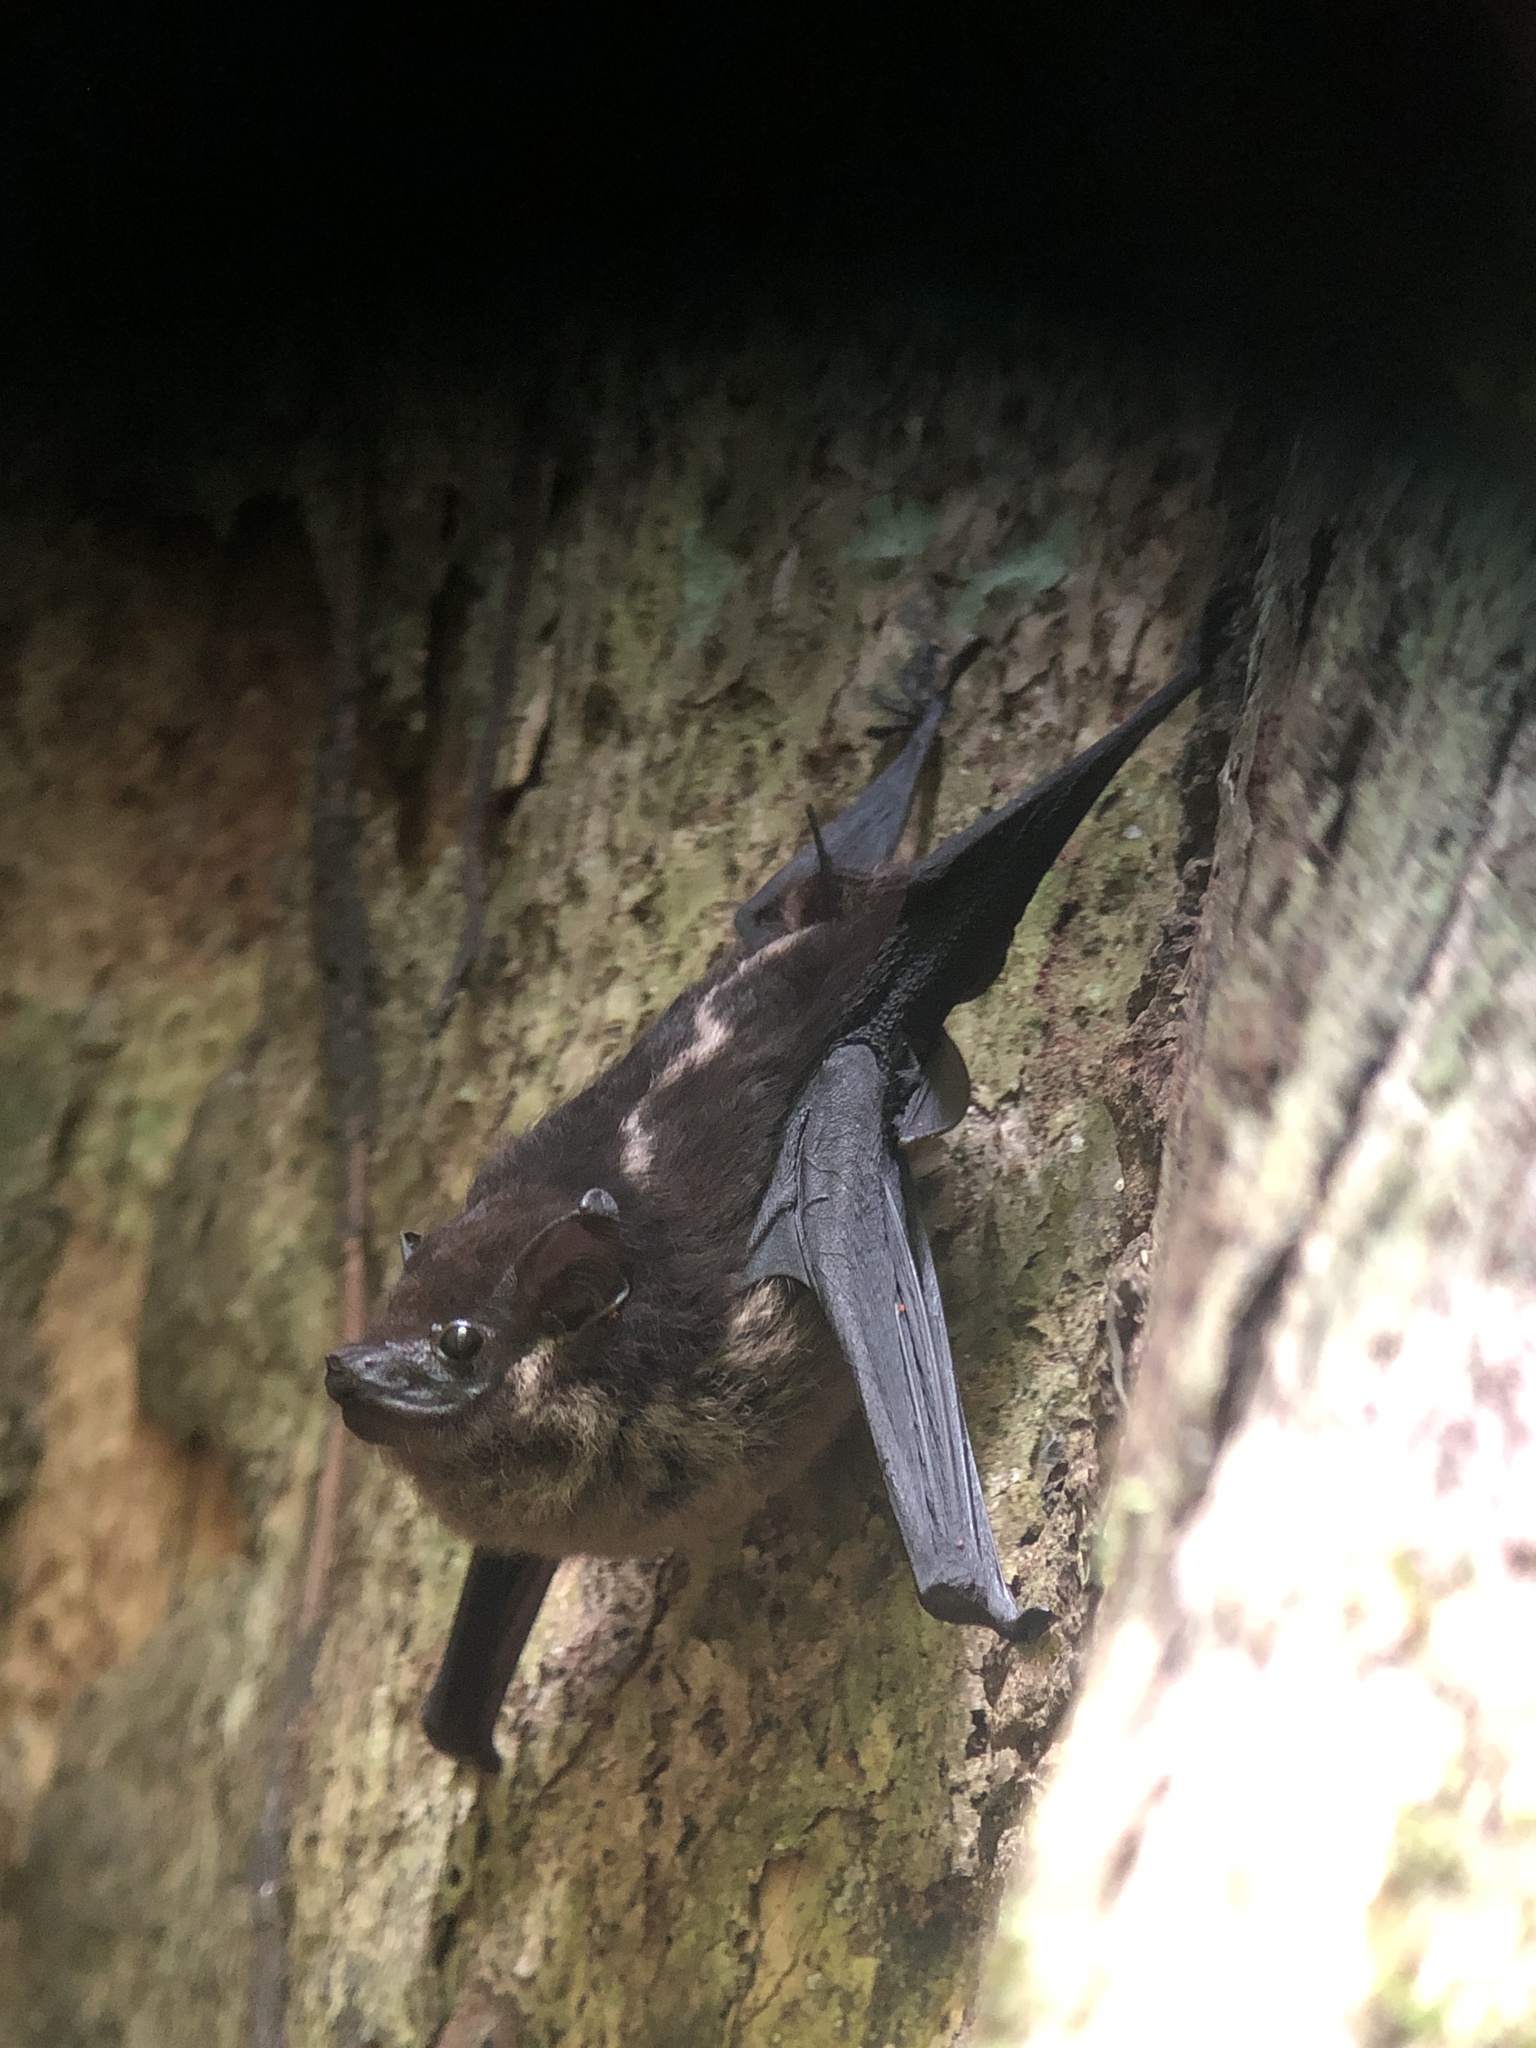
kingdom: Animalia
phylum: Chordata
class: Mammalia
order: Chiroptera
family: Emballonuridae
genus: Saccopteryx
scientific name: Saccopteryx bilineata
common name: Greater sac-winged bat
